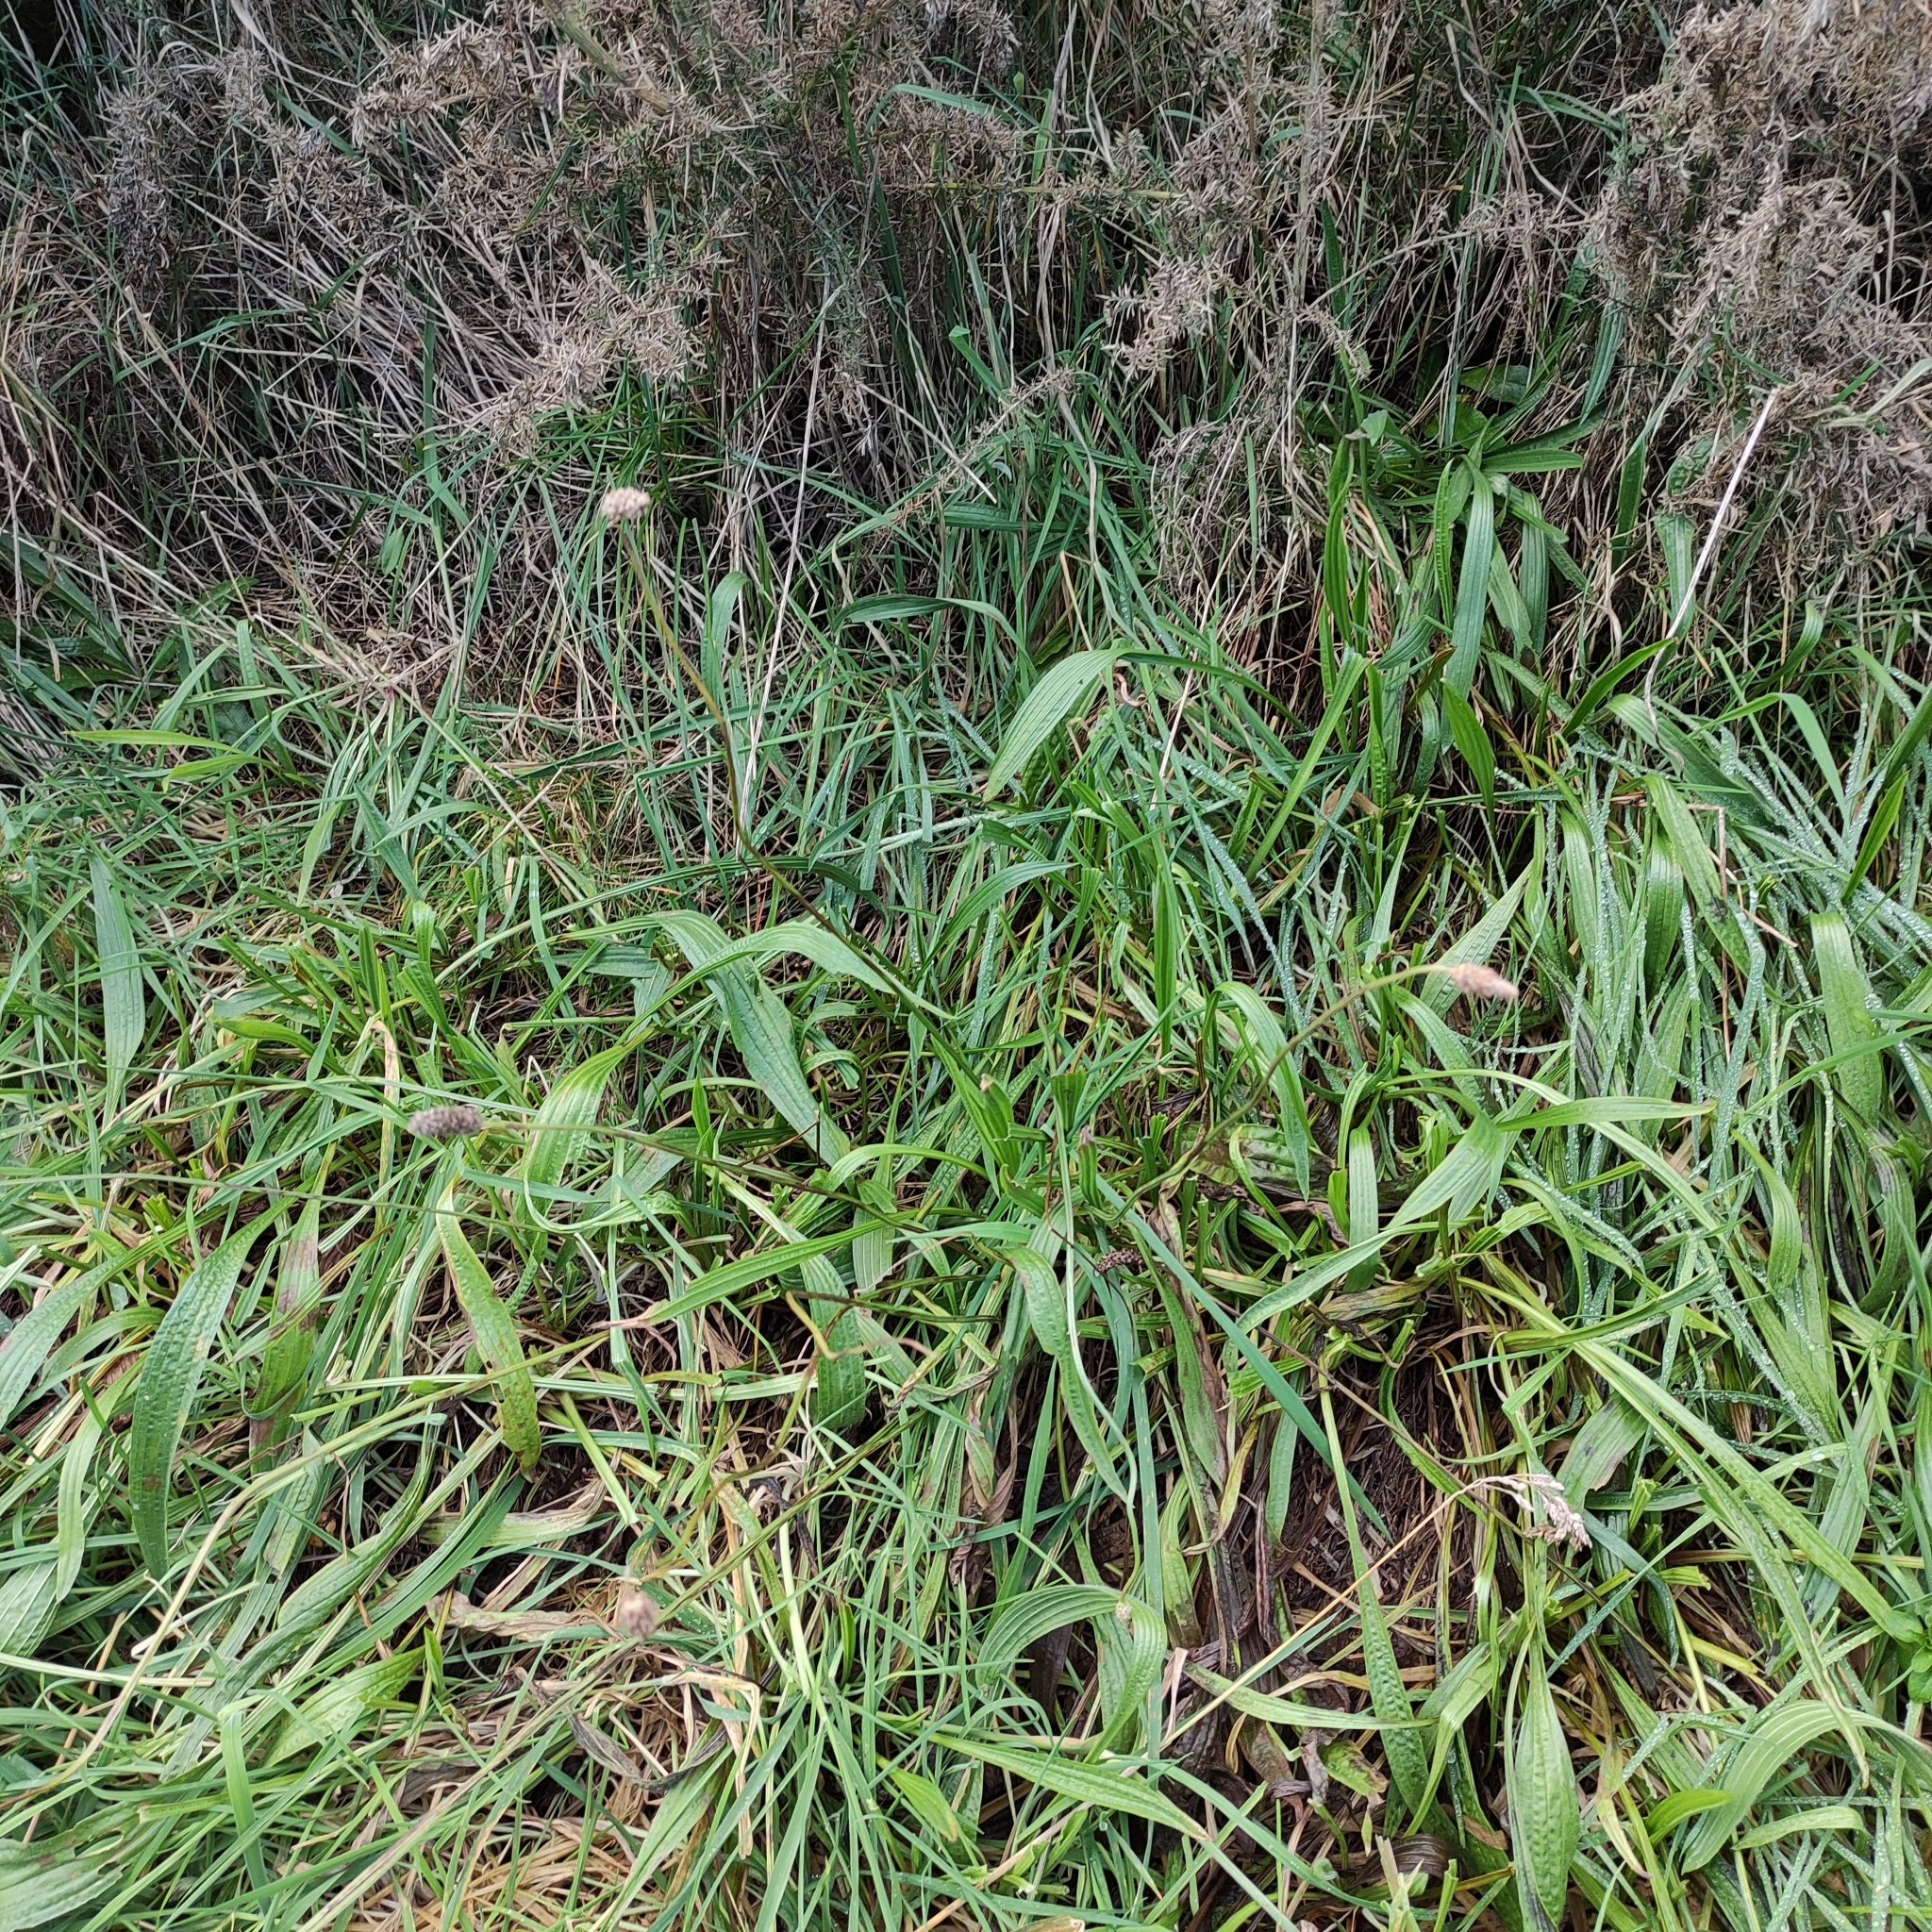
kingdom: Plantae
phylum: Tracheophyta
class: Magnoliopsida
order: Lamiales
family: Plantaginaceae
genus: Plantago
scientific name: Plantago lanceolata
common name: Ribwort plantain
